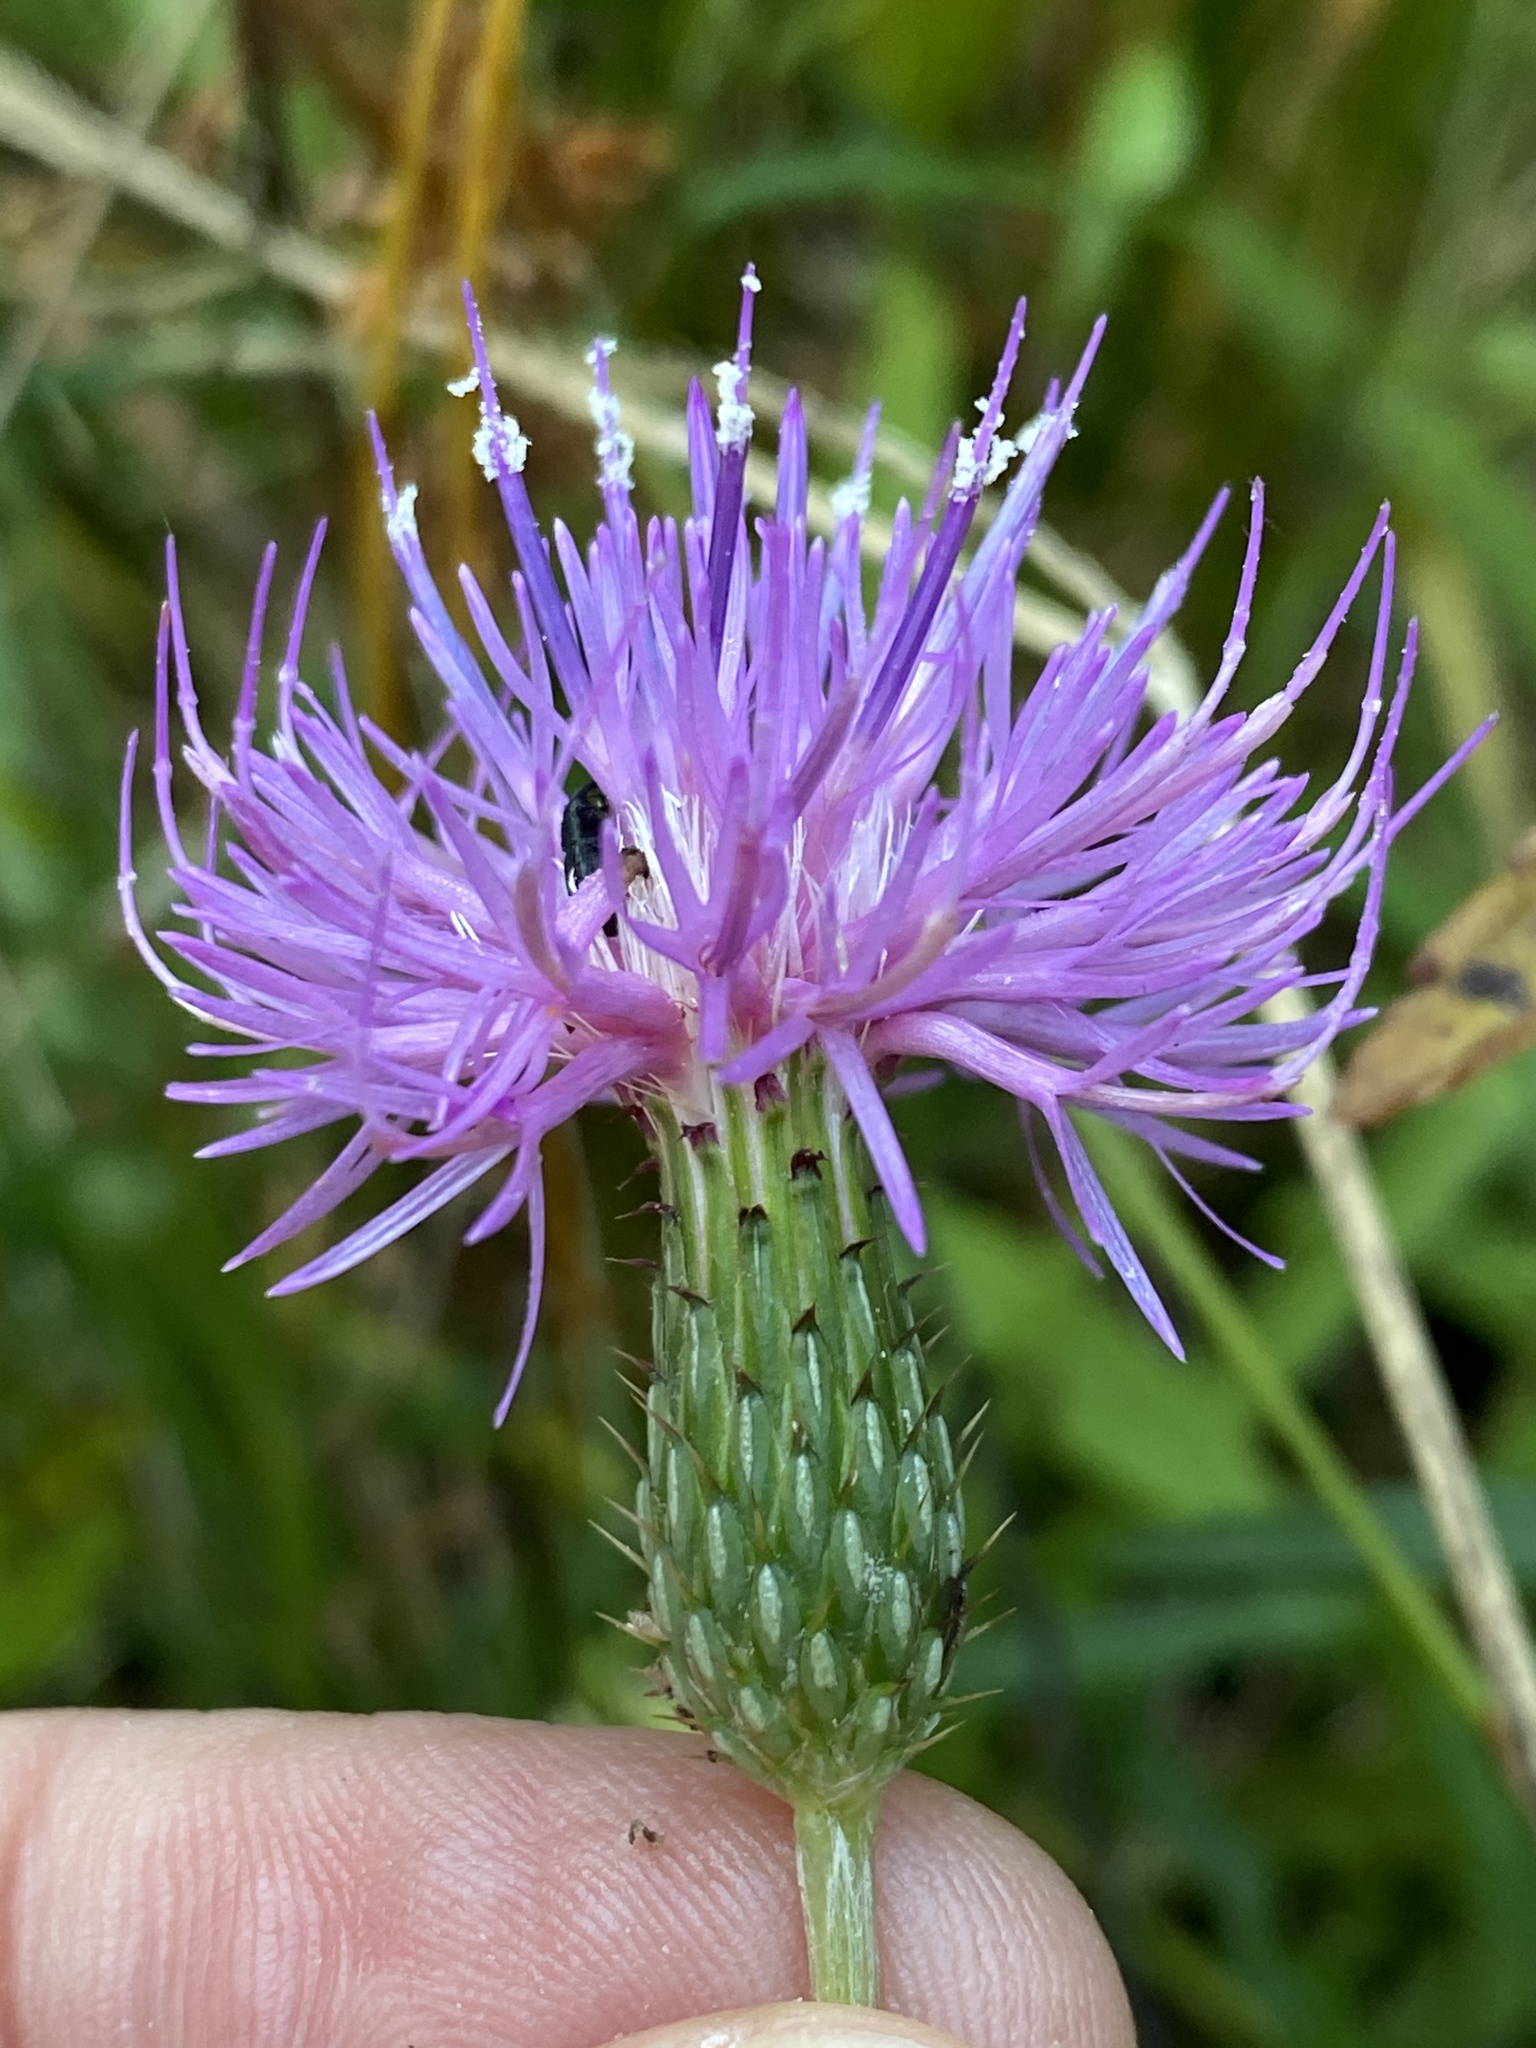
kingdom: Plantae
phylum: Tracheophyta
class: Magnoliopsida
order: Asterales
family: Asteraceae
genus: Cirsium
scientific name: Cirsium virginianum
